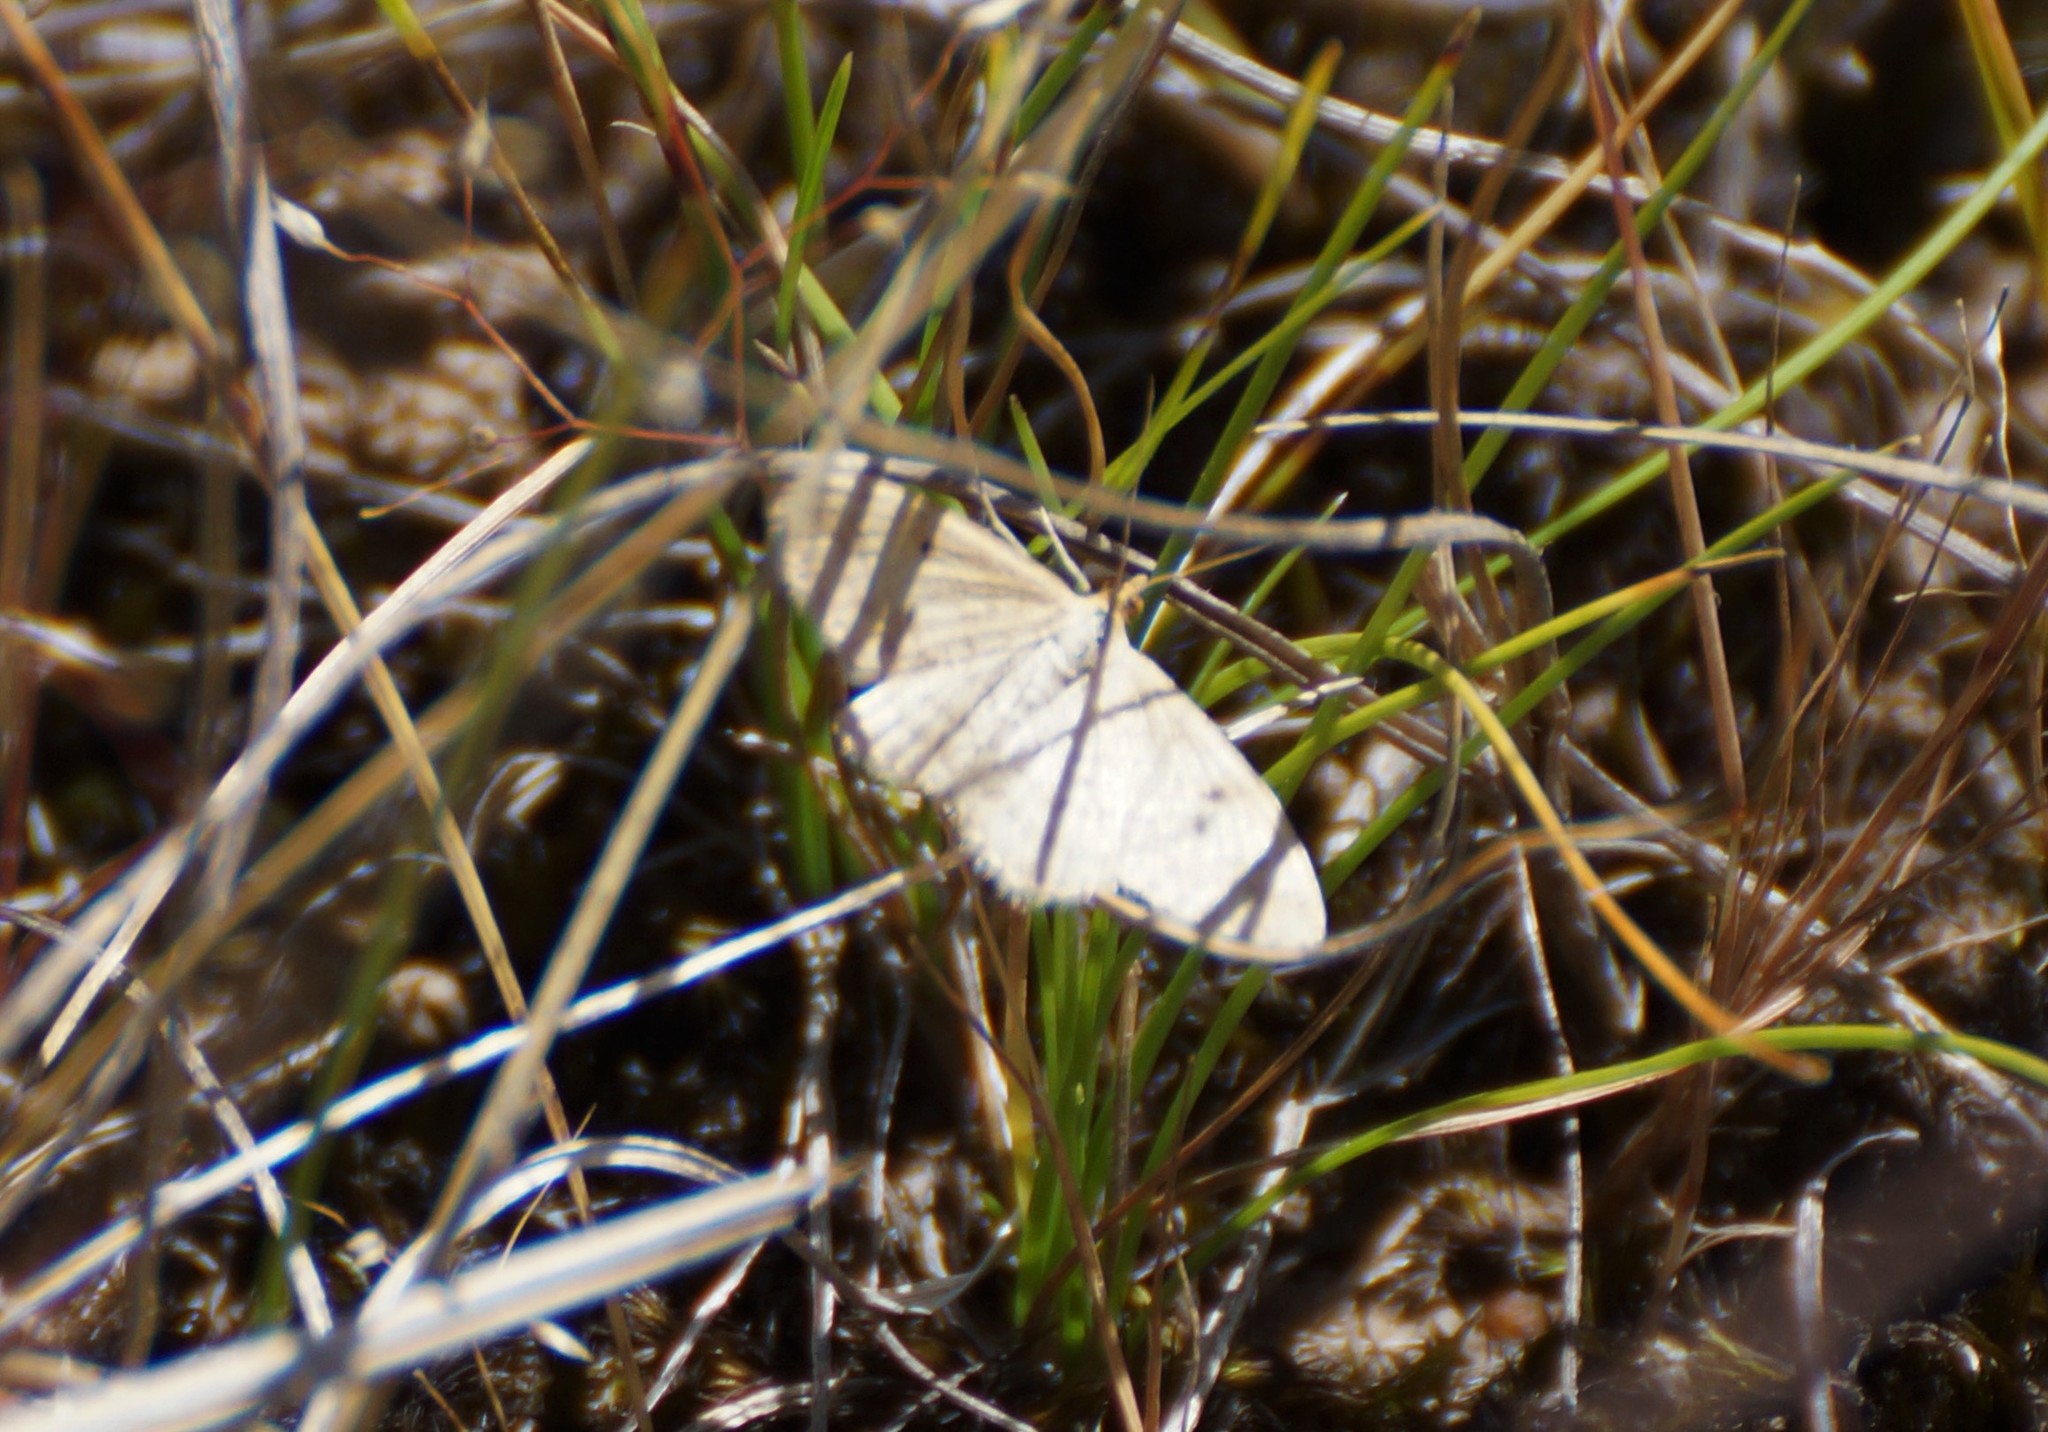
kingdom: Animalia
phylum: Arthropoda
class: Insecta
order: Lepidoptera
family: Geometridae
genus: Scopula
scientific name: Scopula rubraria
